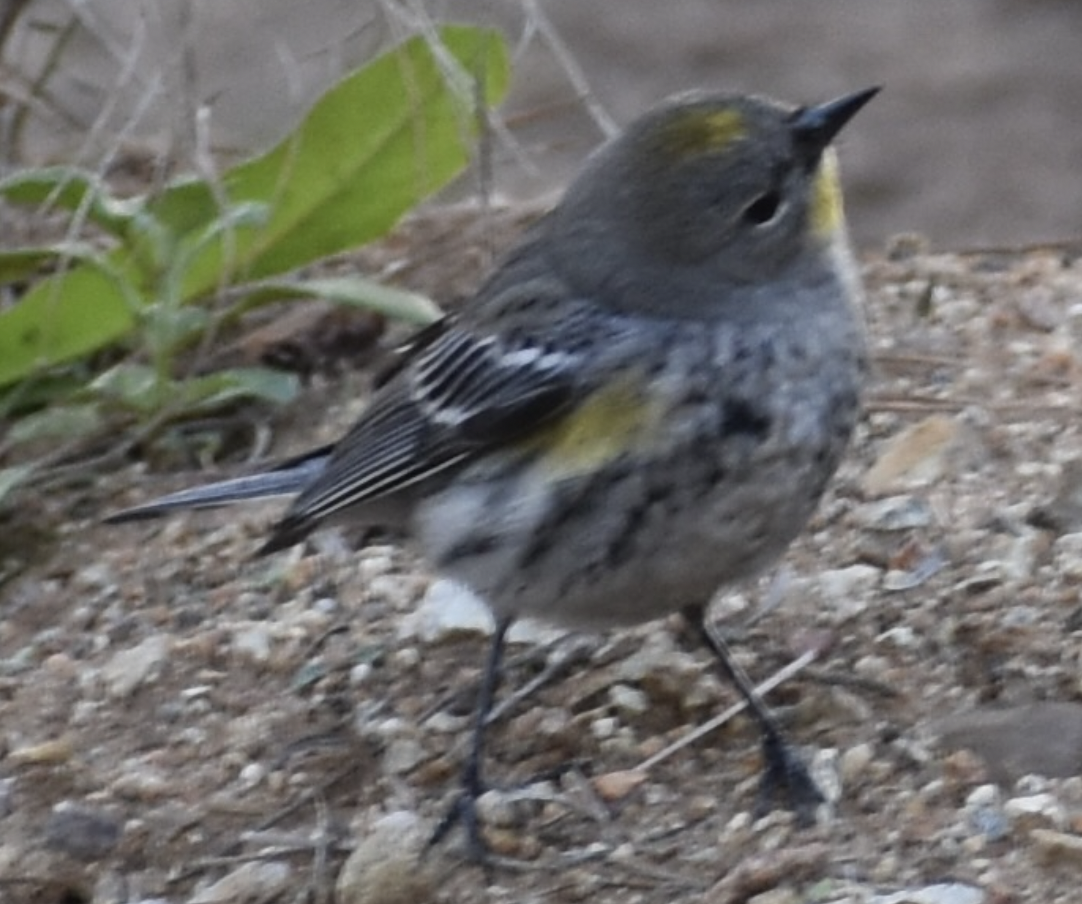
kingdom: Animalia
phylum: Chordata
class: Aves
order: Passeriformes
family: Parulidae
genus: Setophaga
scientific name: Setophaga coronata
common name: Myrtle warbler
